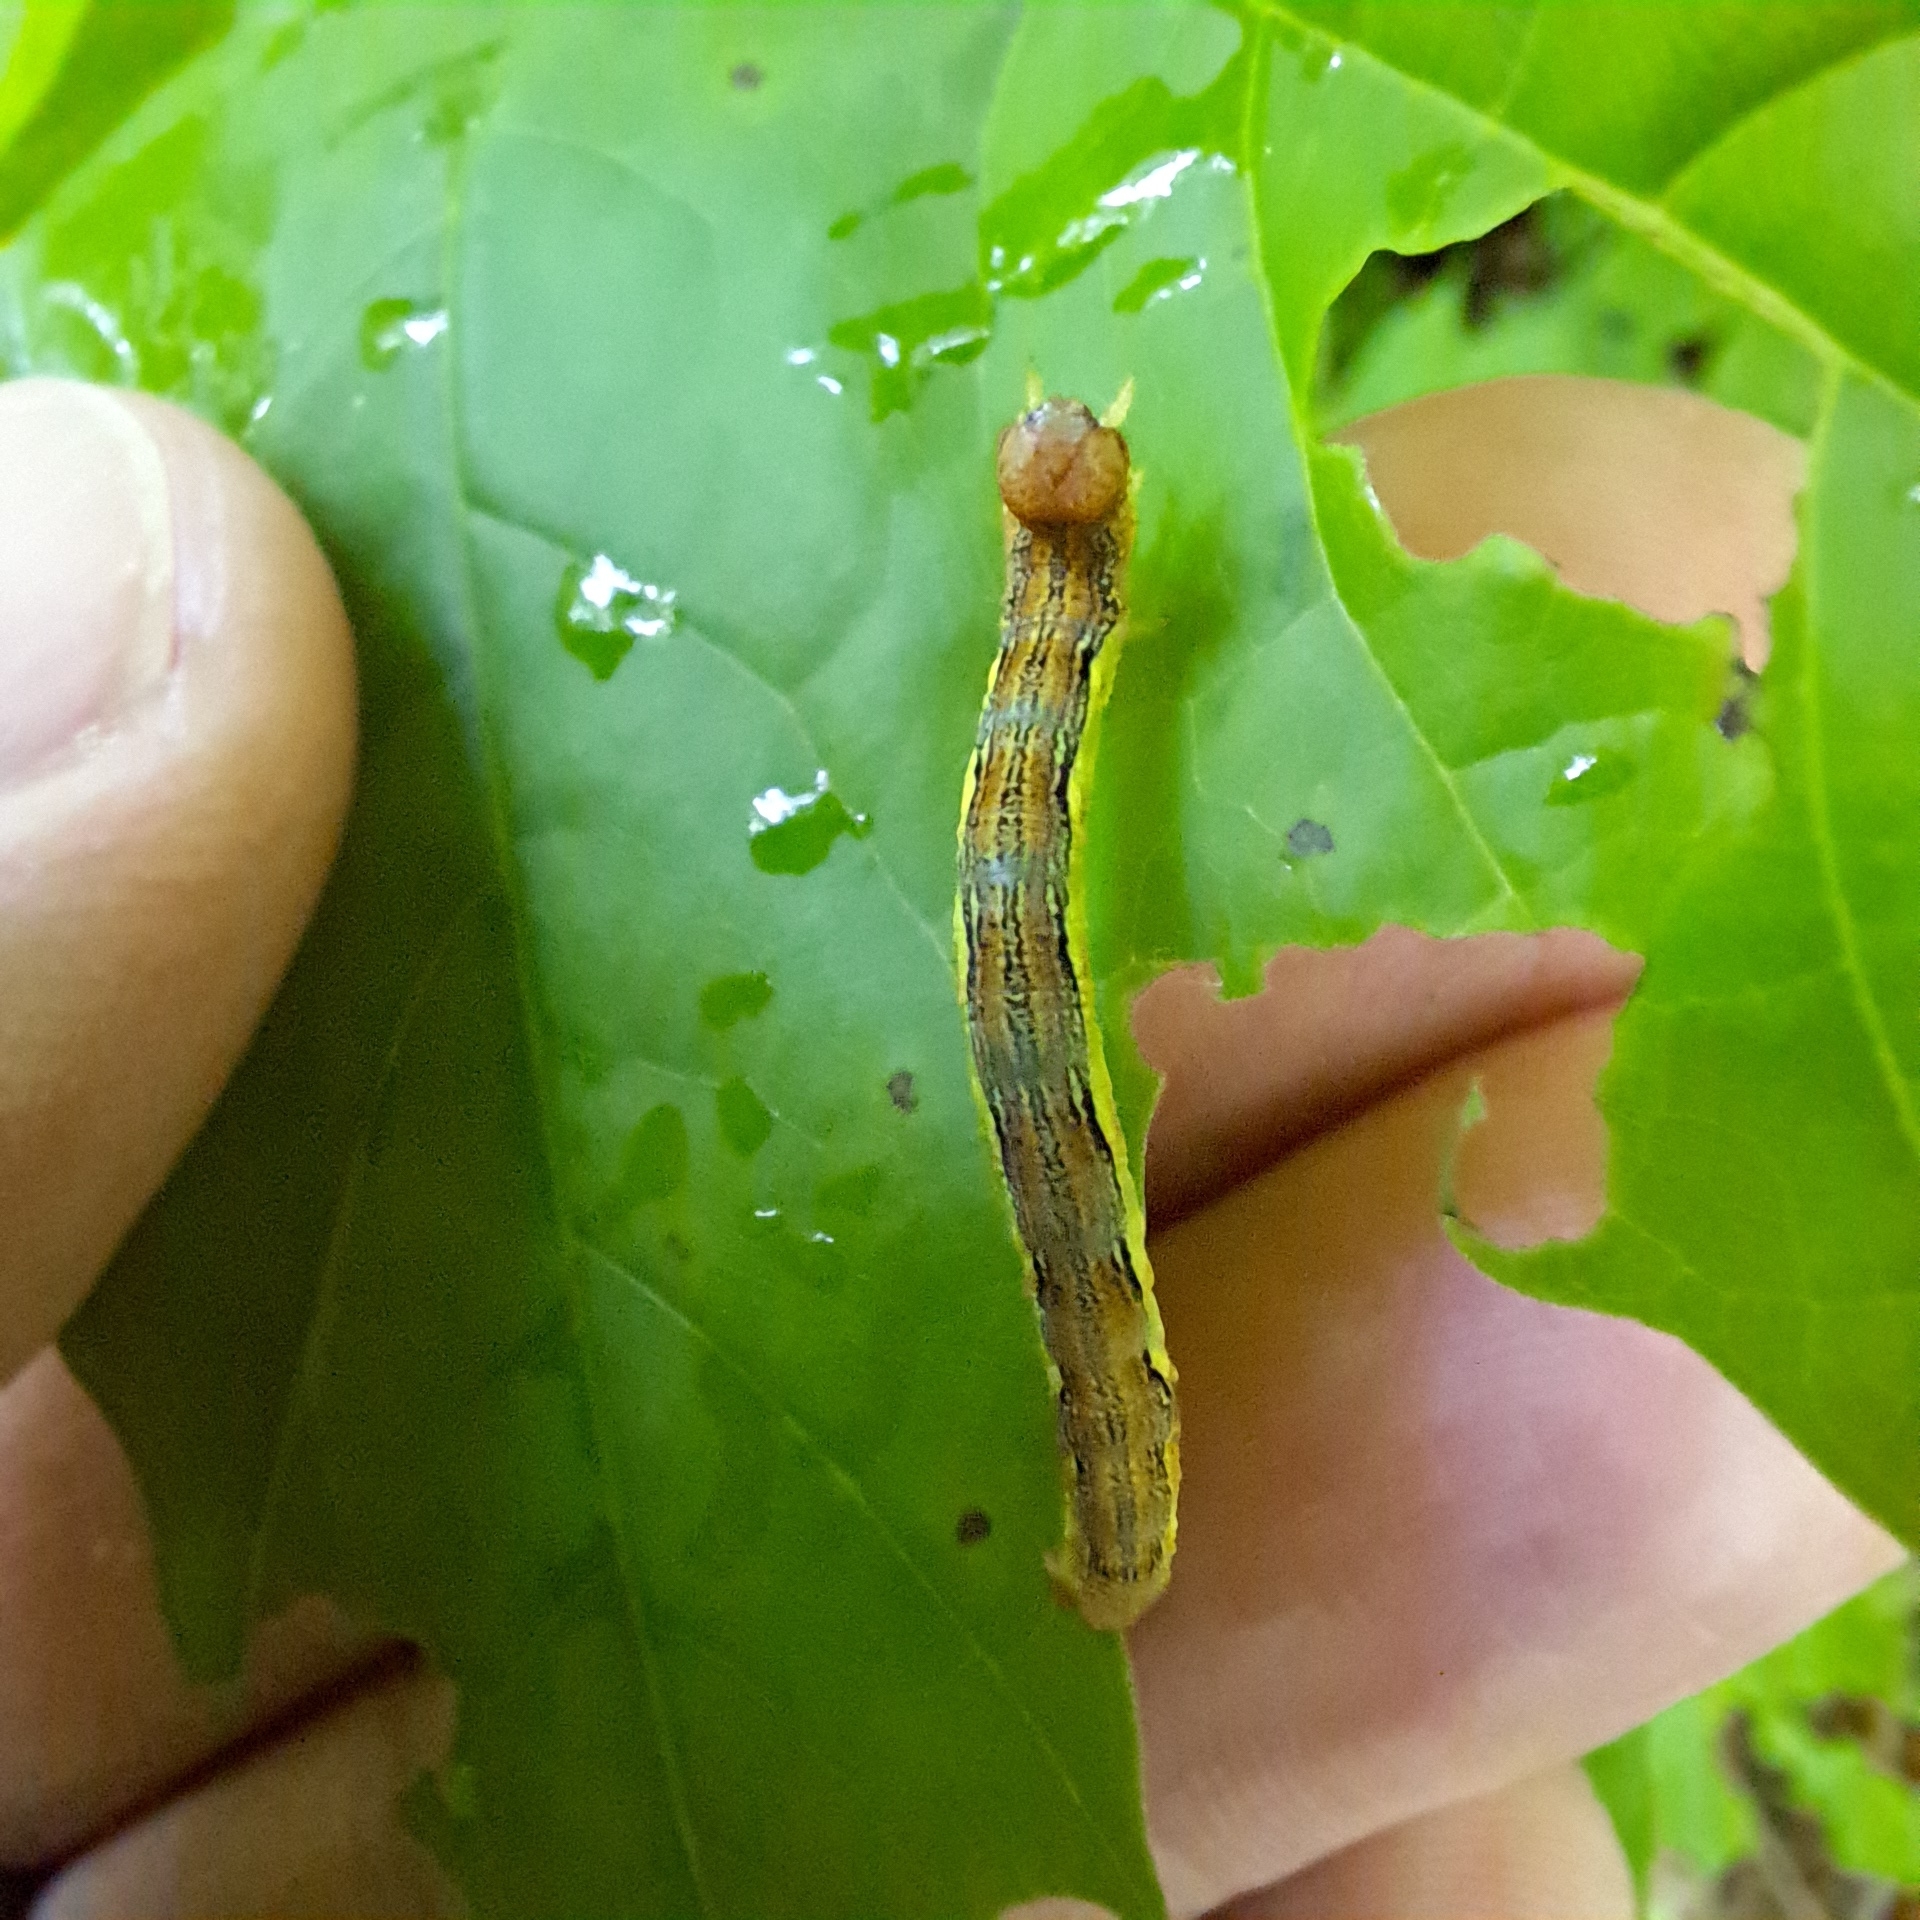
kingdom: Animalia
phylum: Arthropoda
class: Insecta
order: Lepidoptera
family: Geometridae
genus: Erannis
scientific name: Erannis defoliaria
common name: Mottled umber
